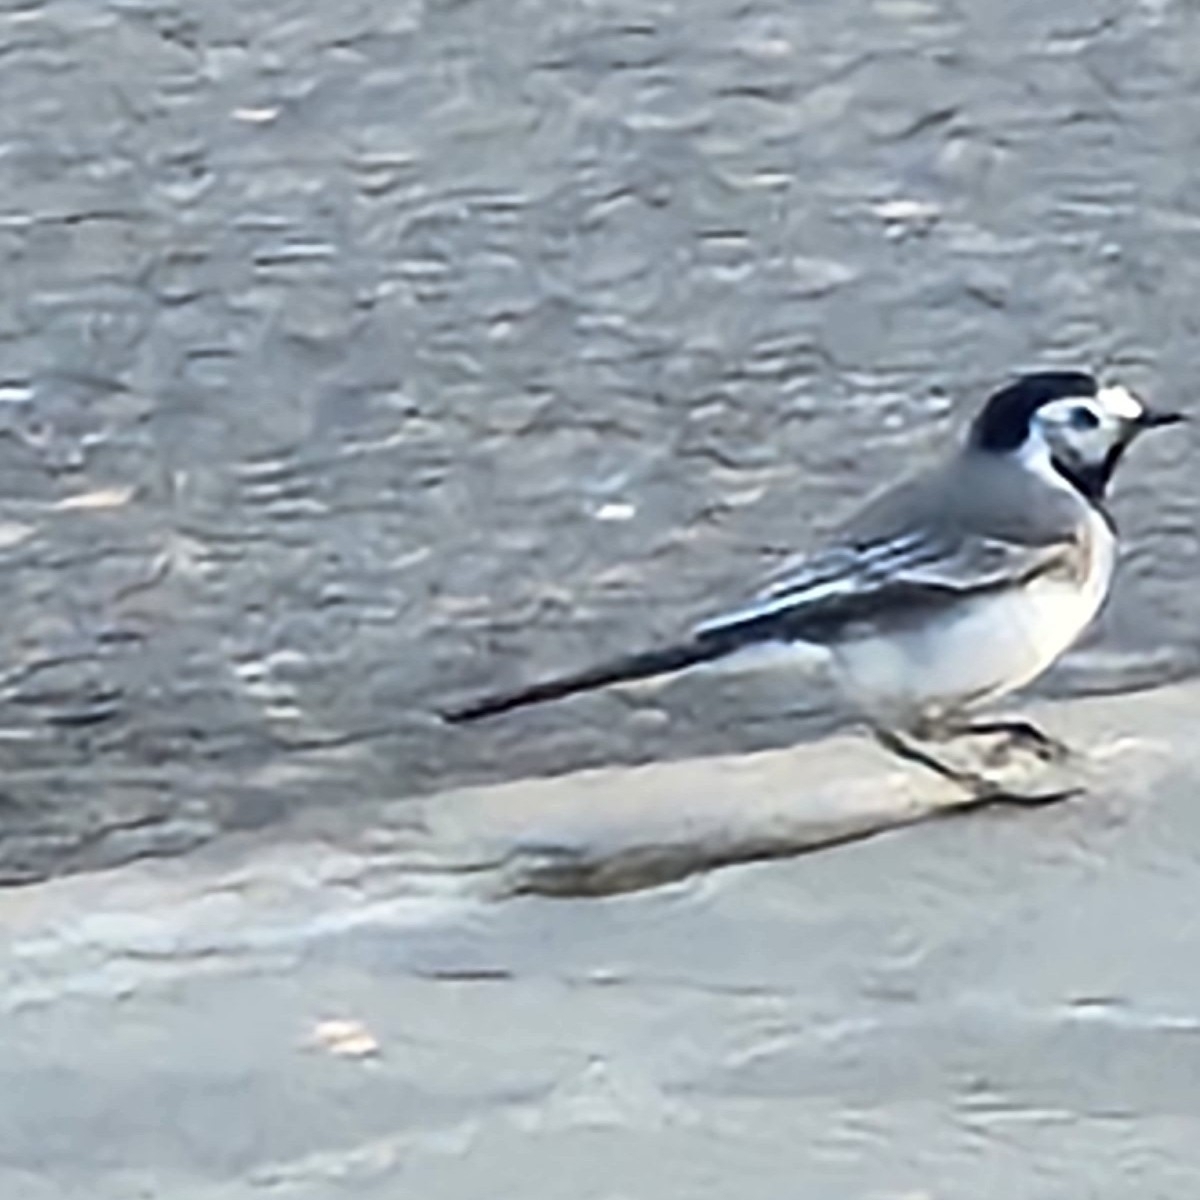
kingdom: Animalia
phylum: Chordata
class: Aves
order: Passeriformes
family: Motacillidae
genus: Motacilla
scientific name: Motacilla alba
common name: White wagtail
